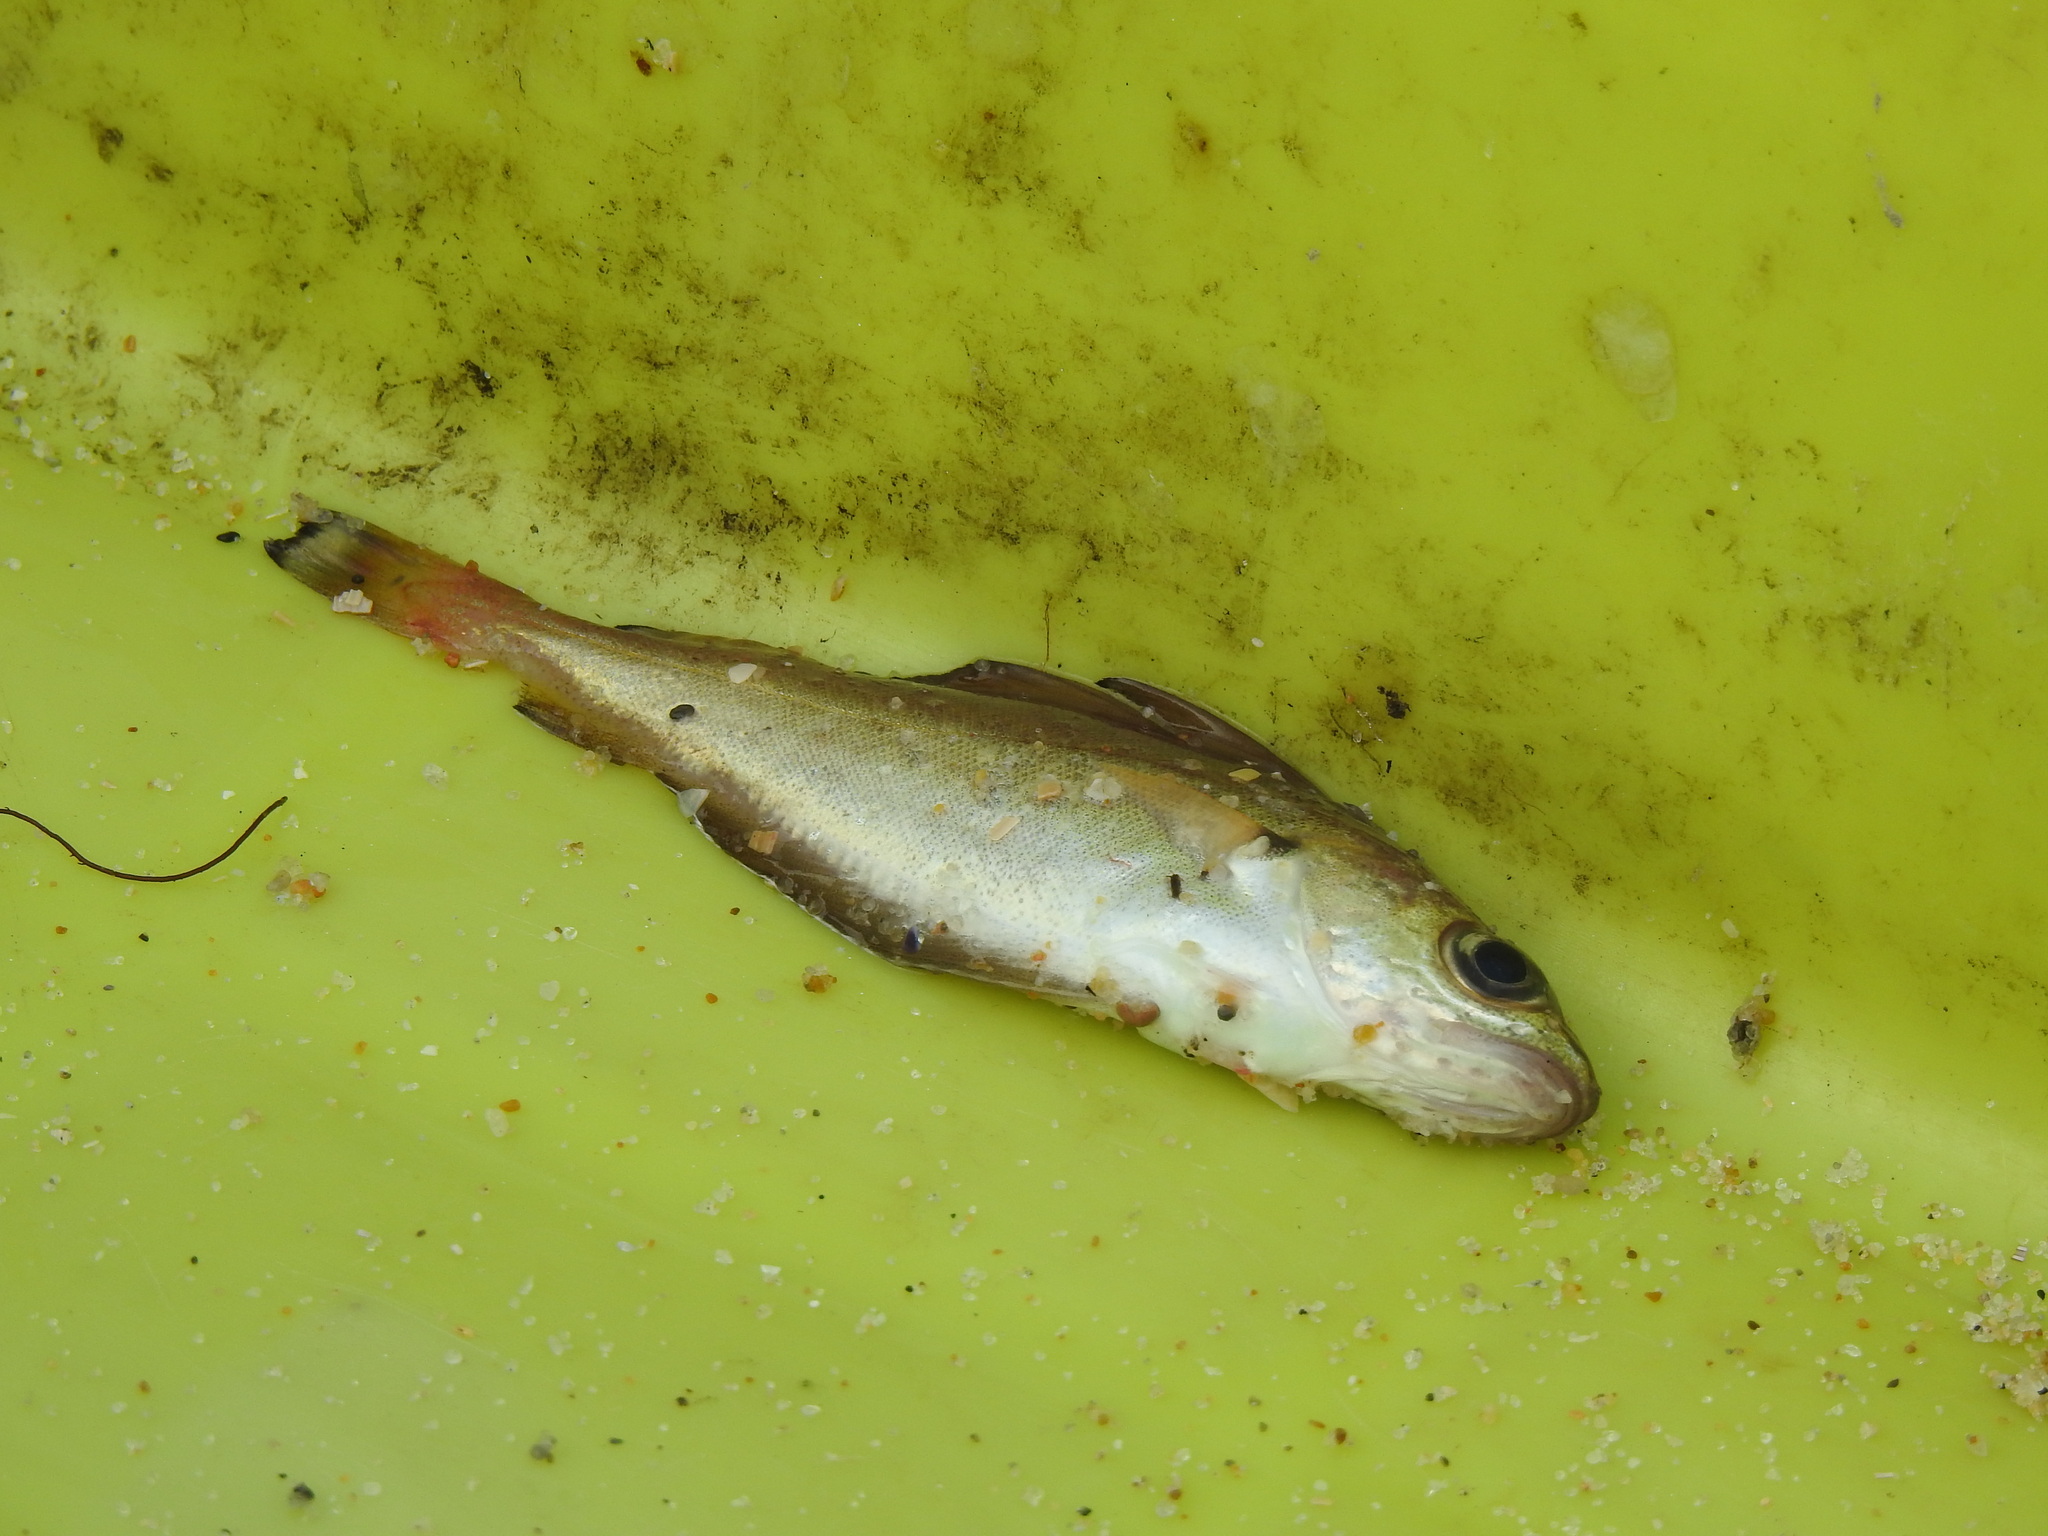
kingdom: Animalia
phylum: Chordata
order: Gadiformes
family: Gadidae
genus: Trisopterus
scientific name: Trisopterus luscus
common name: Bib
